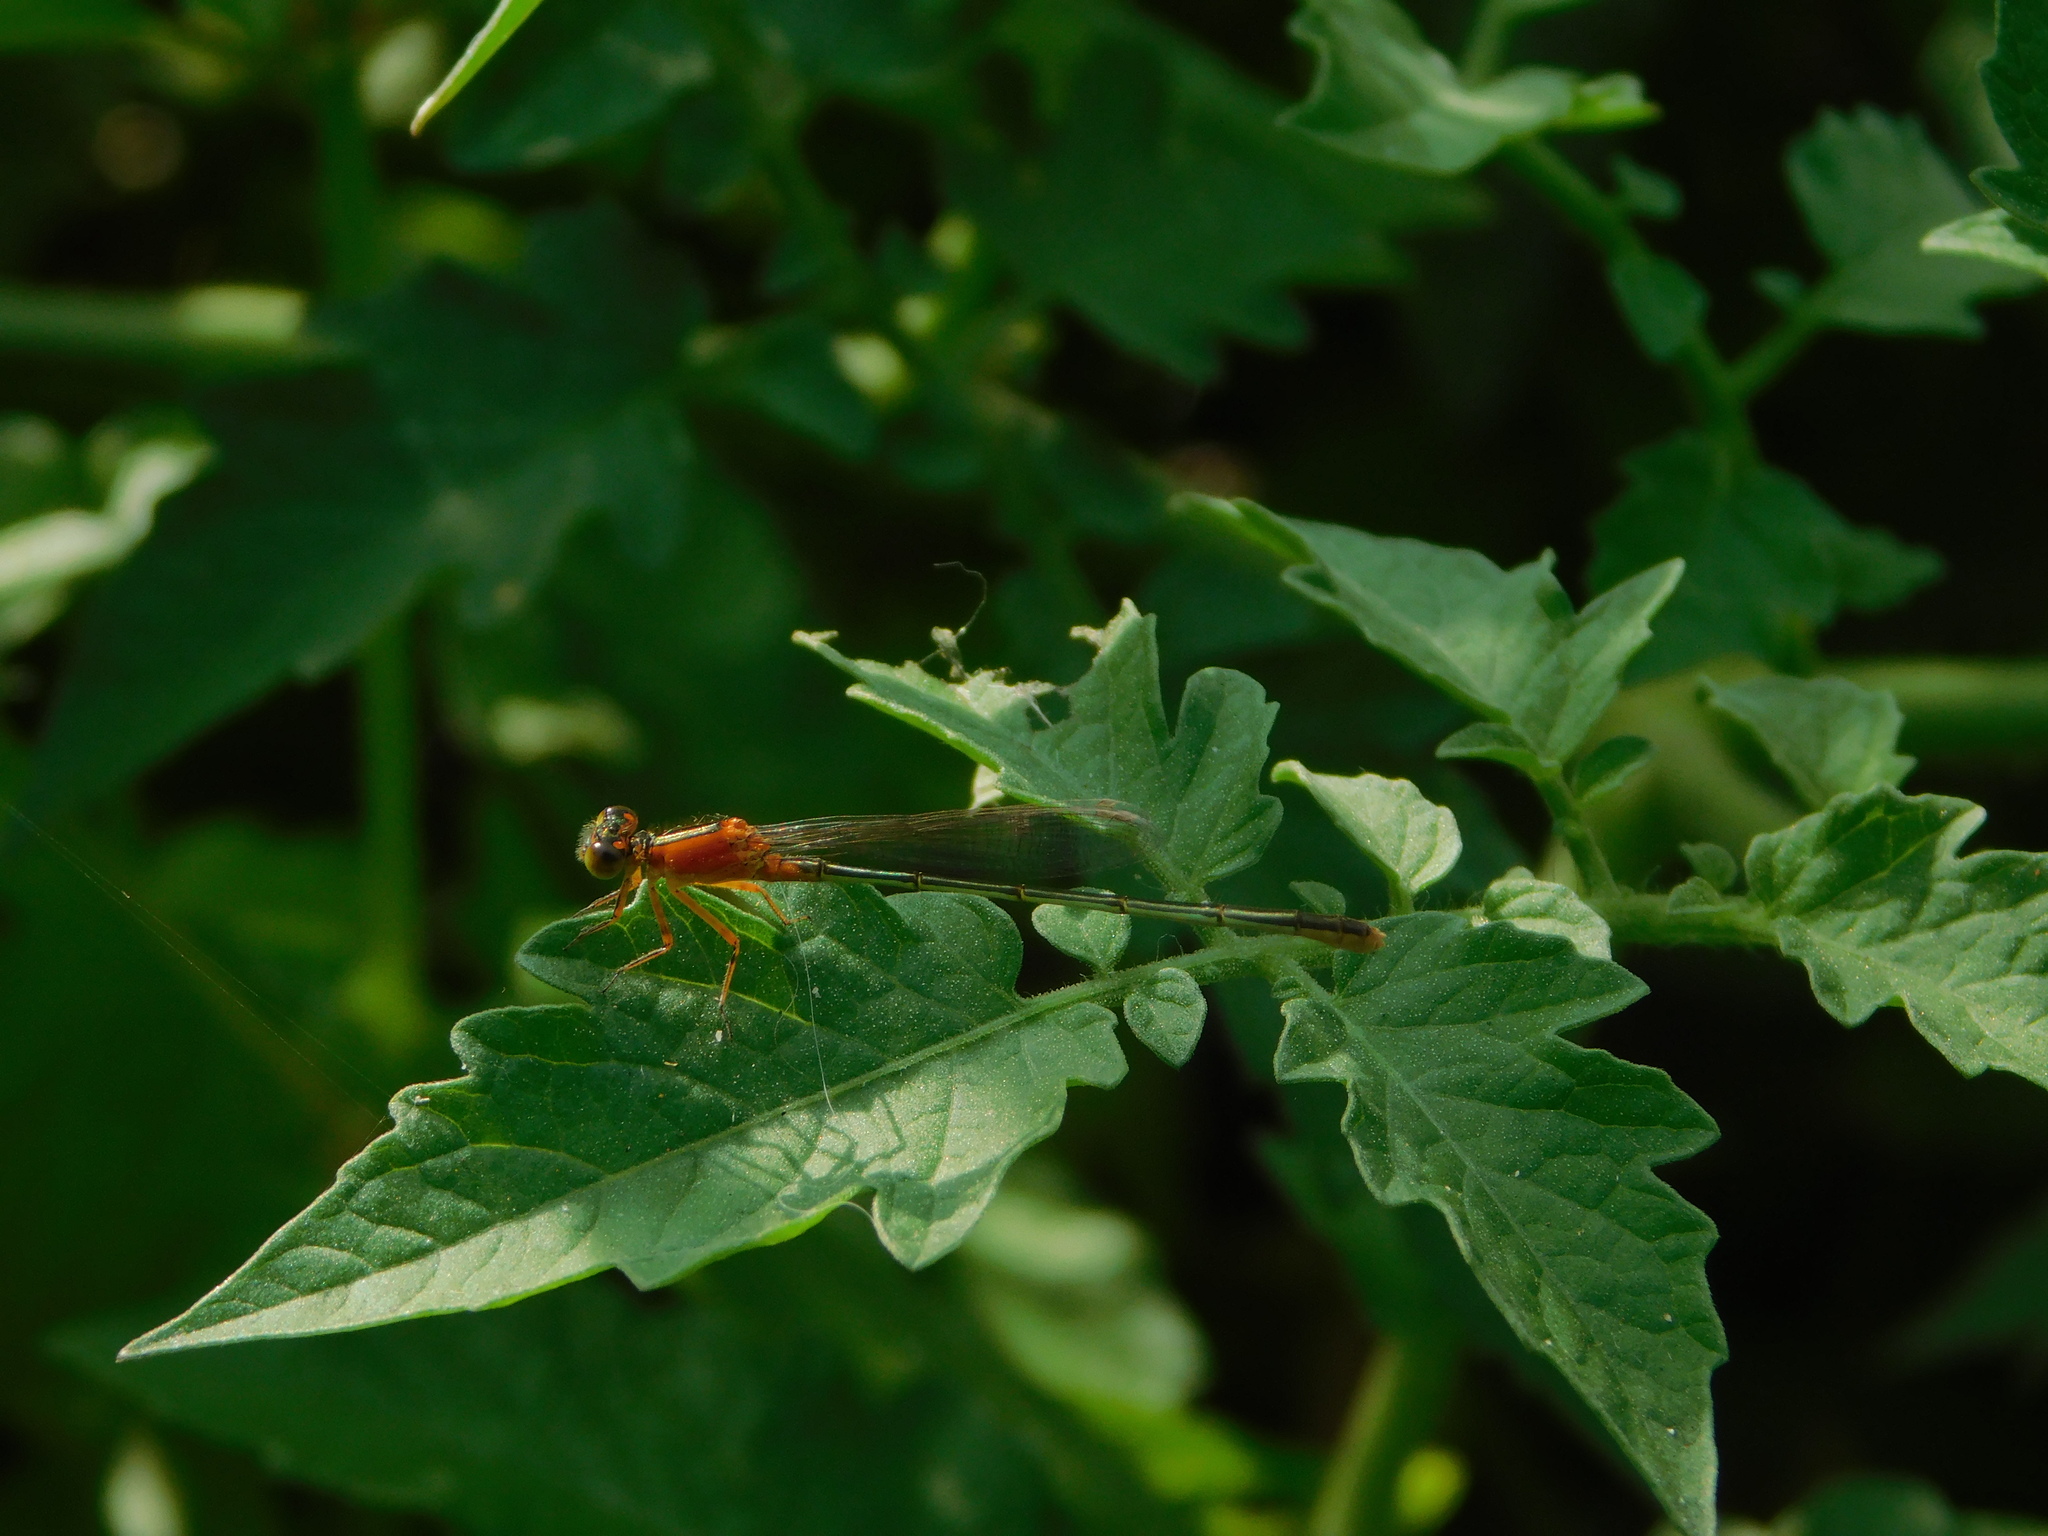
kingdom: Animalia
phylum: Arthropoda
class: Insecta
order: Odonata
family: Coenagrionidae
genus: Ischnura
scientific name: Ischnura ramburii
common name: Rambur's forktail
